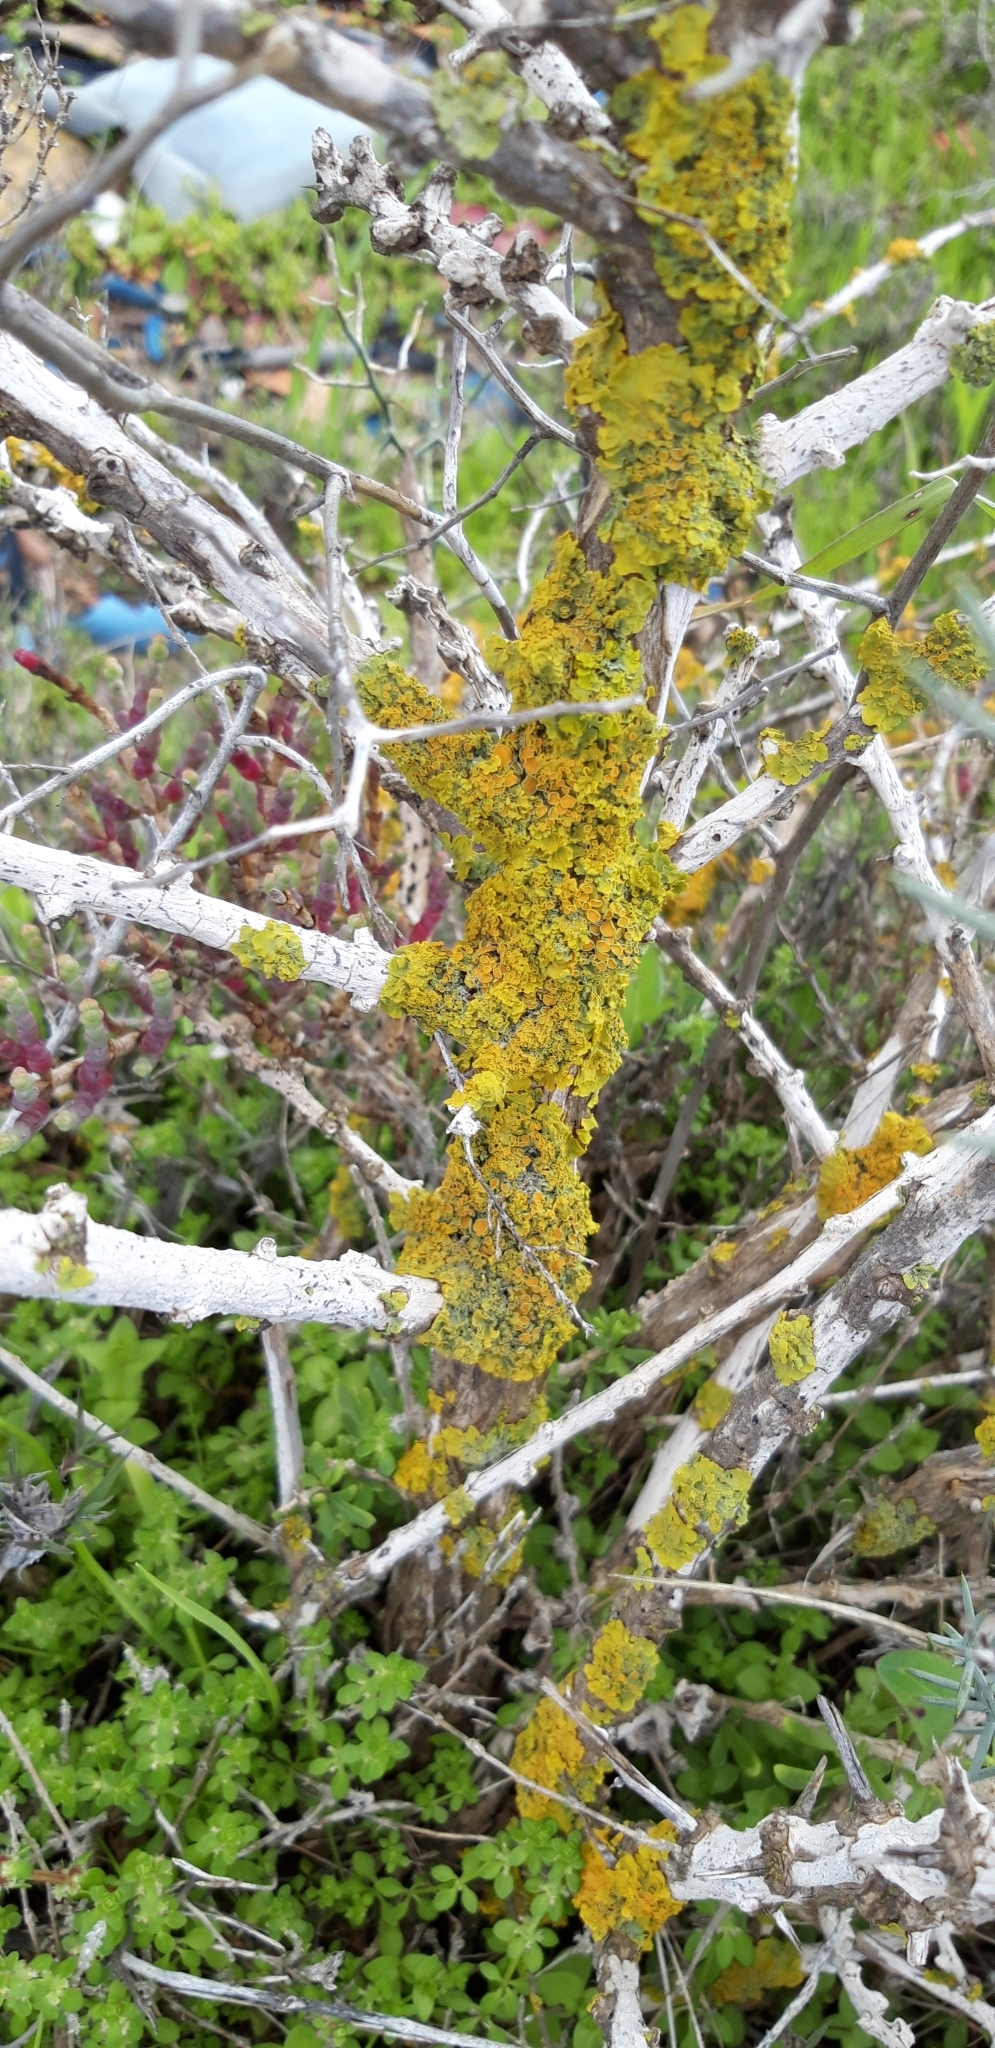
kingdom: Fungi
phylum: Ascomycota
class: Lecanoromycetes
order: Teloschistales
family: Teloschistaceae
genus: Xanthoria
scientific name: Xanthoria parietina
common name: Common orange lichen
